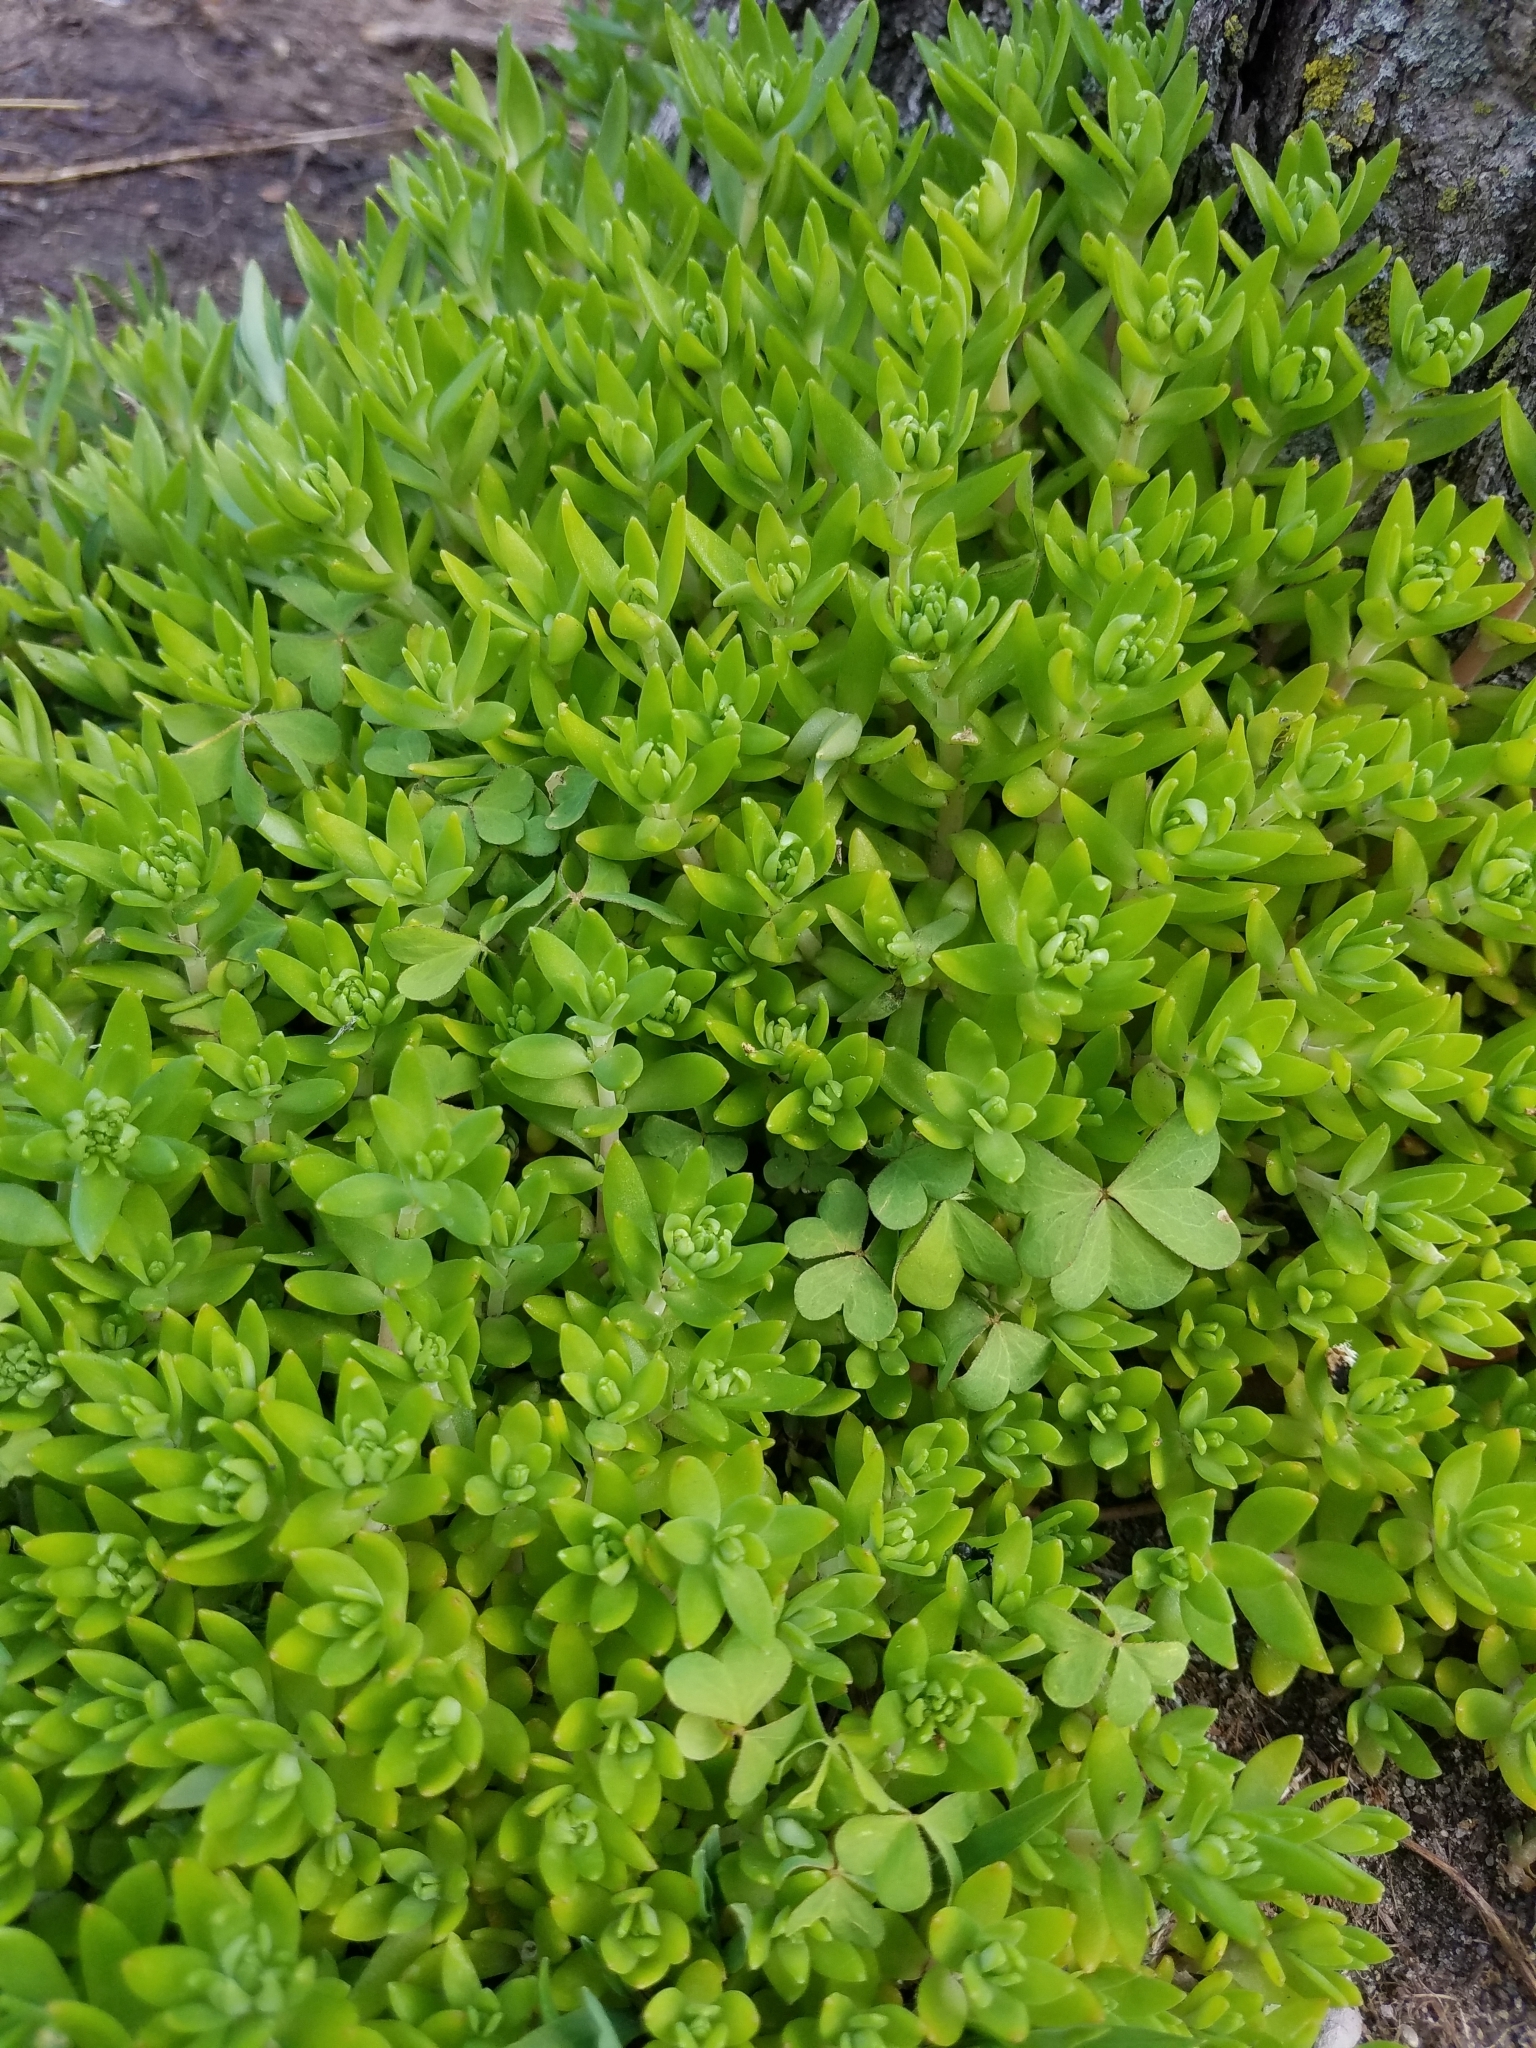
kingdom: Plantae
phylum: Tracheophyta
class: Magnoliopsida
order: Saxifragales
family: Crassulaceae
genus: Sedum
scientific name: Sedum sarmentosum
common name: Stringy stonecrop
